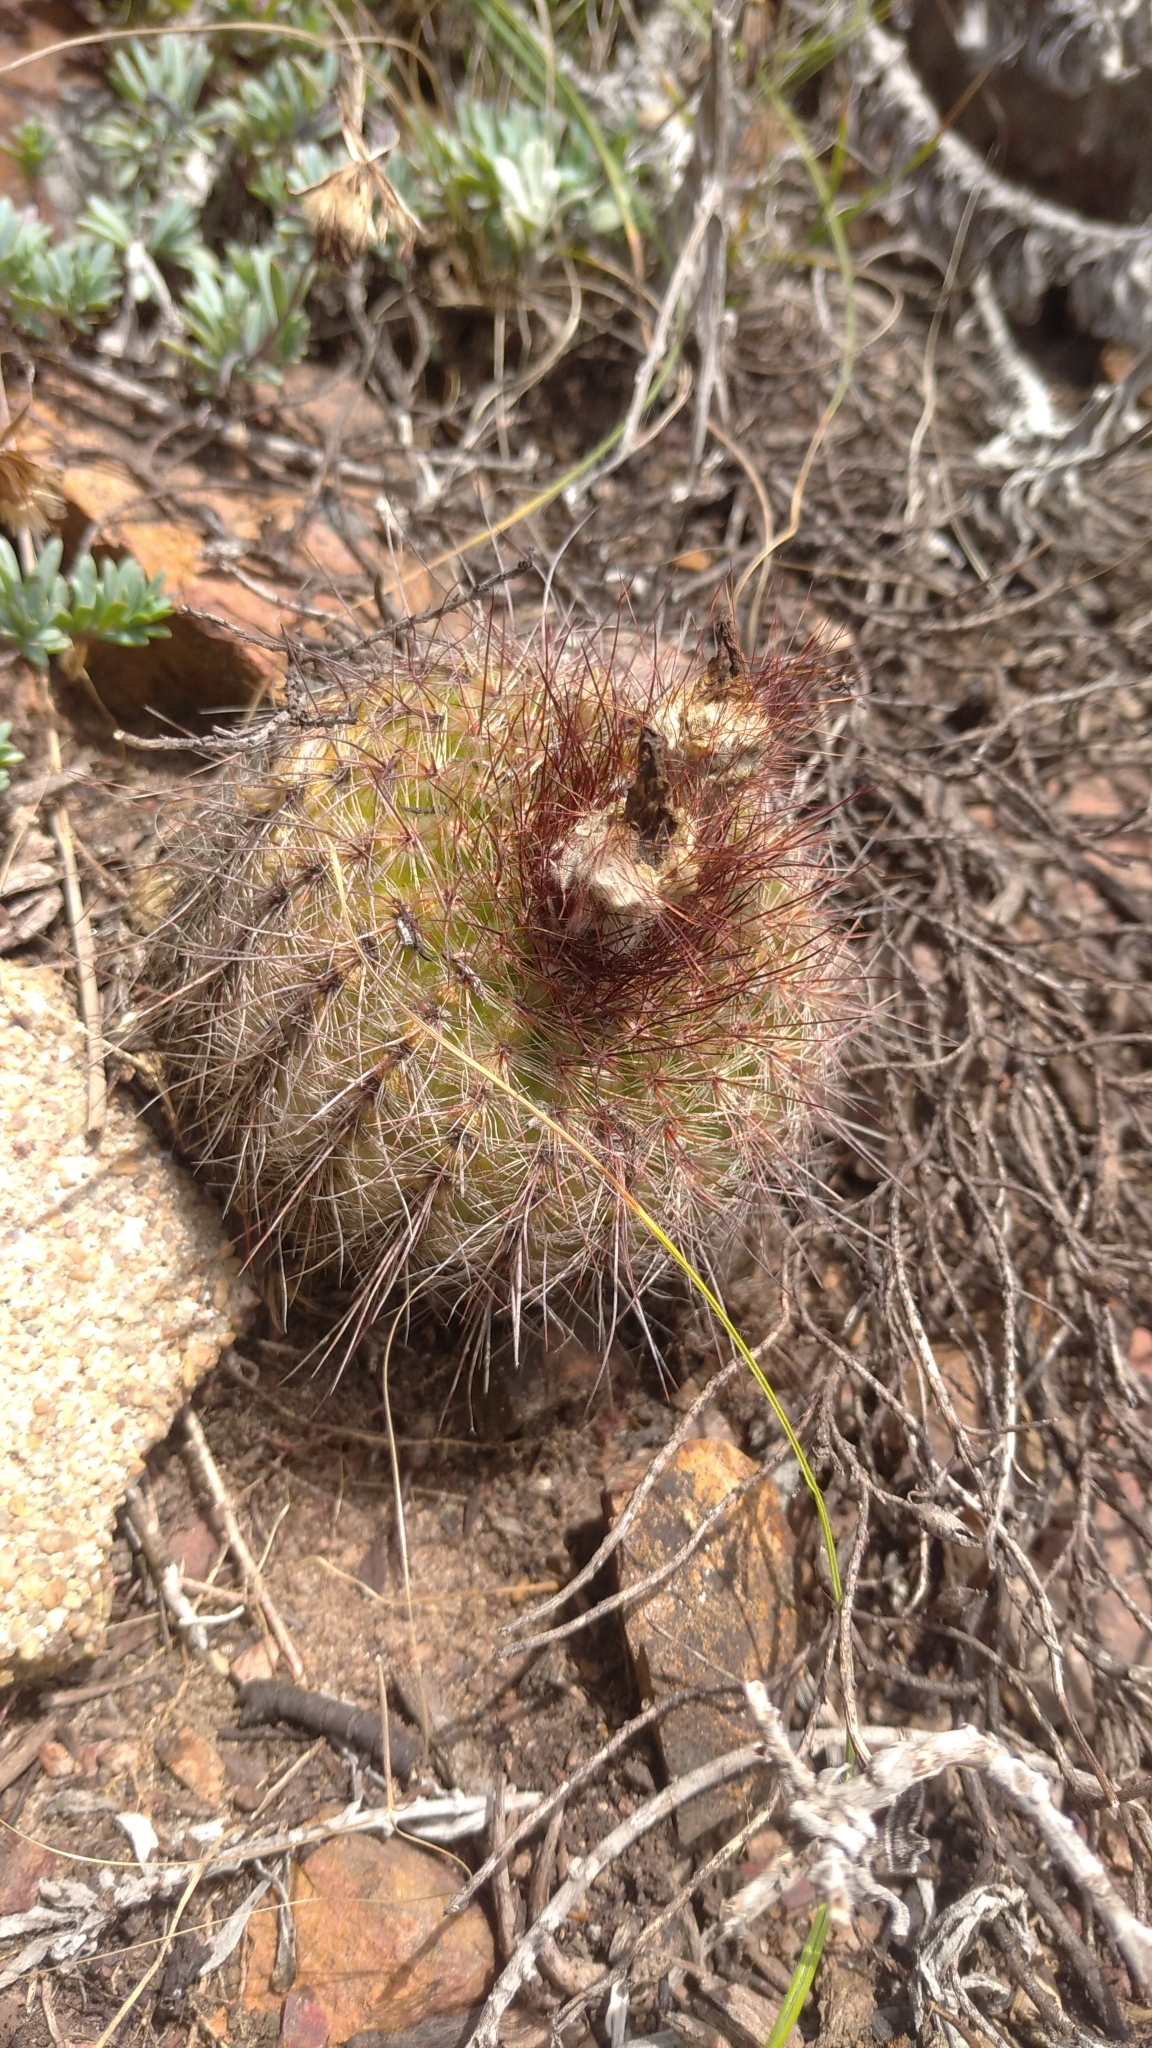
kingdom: Plantae
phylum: Tracheophyta
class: Magnoliopsida
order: Caryophyllales
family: Cactaceae
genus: Parodia
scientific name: Parodia concinna
